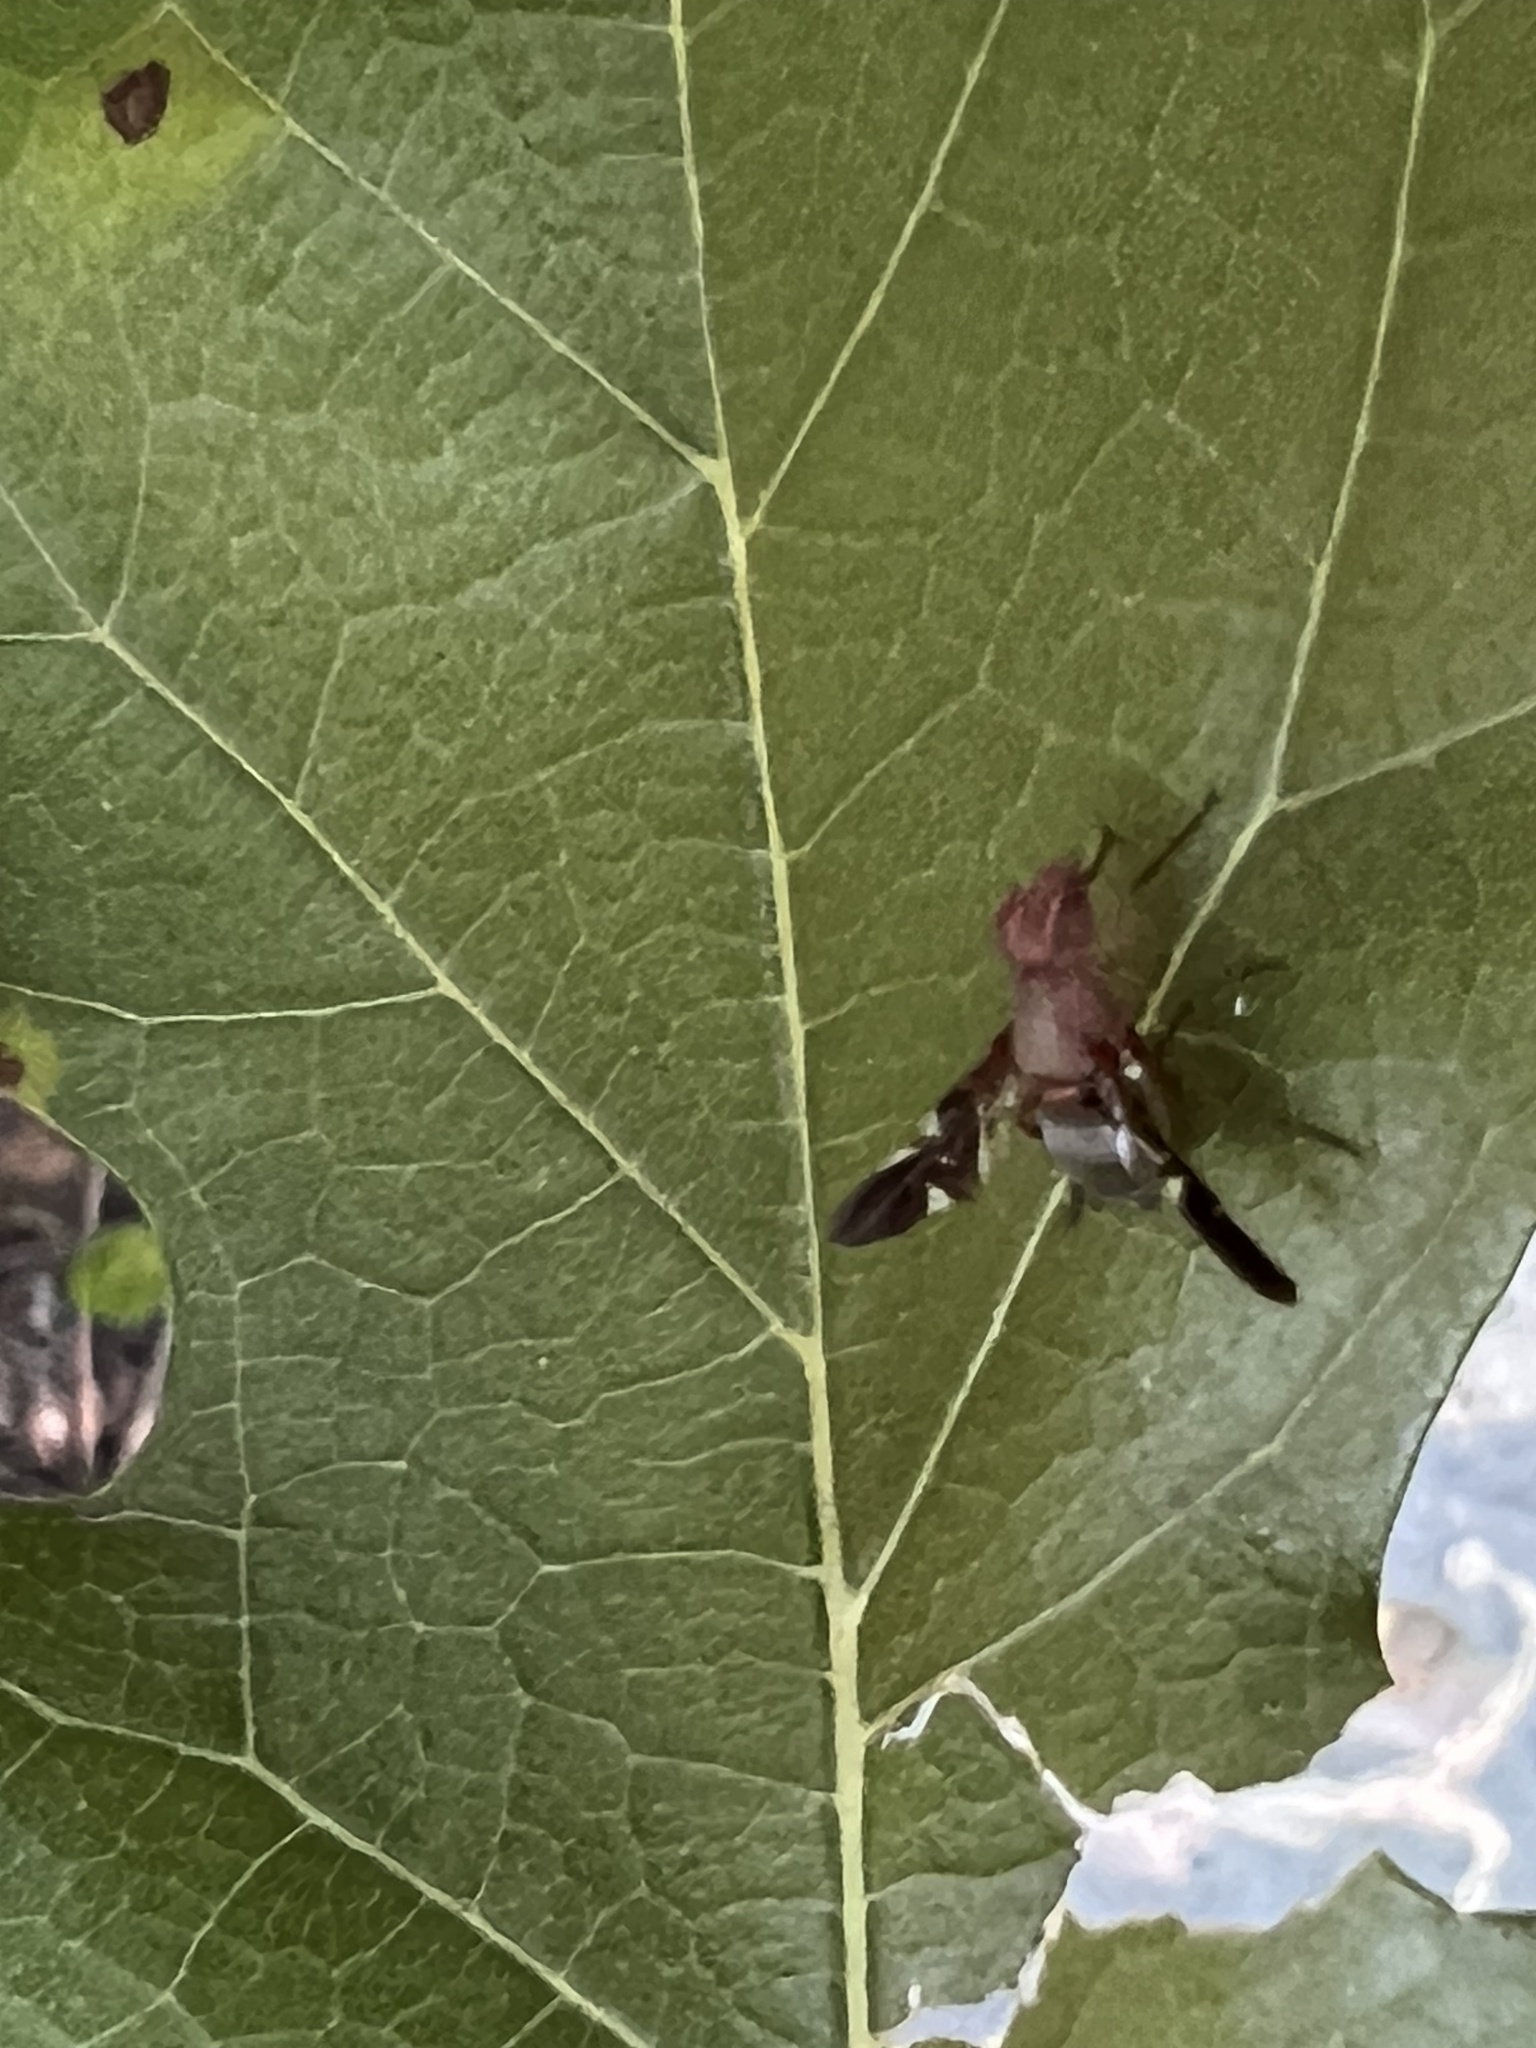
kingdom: Animalia
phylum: Arthropoda
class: Insecta
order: Diptera
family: Ulidiidae
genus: Delphinia
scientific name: Delphinia picta
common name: Common picture-winged fly
